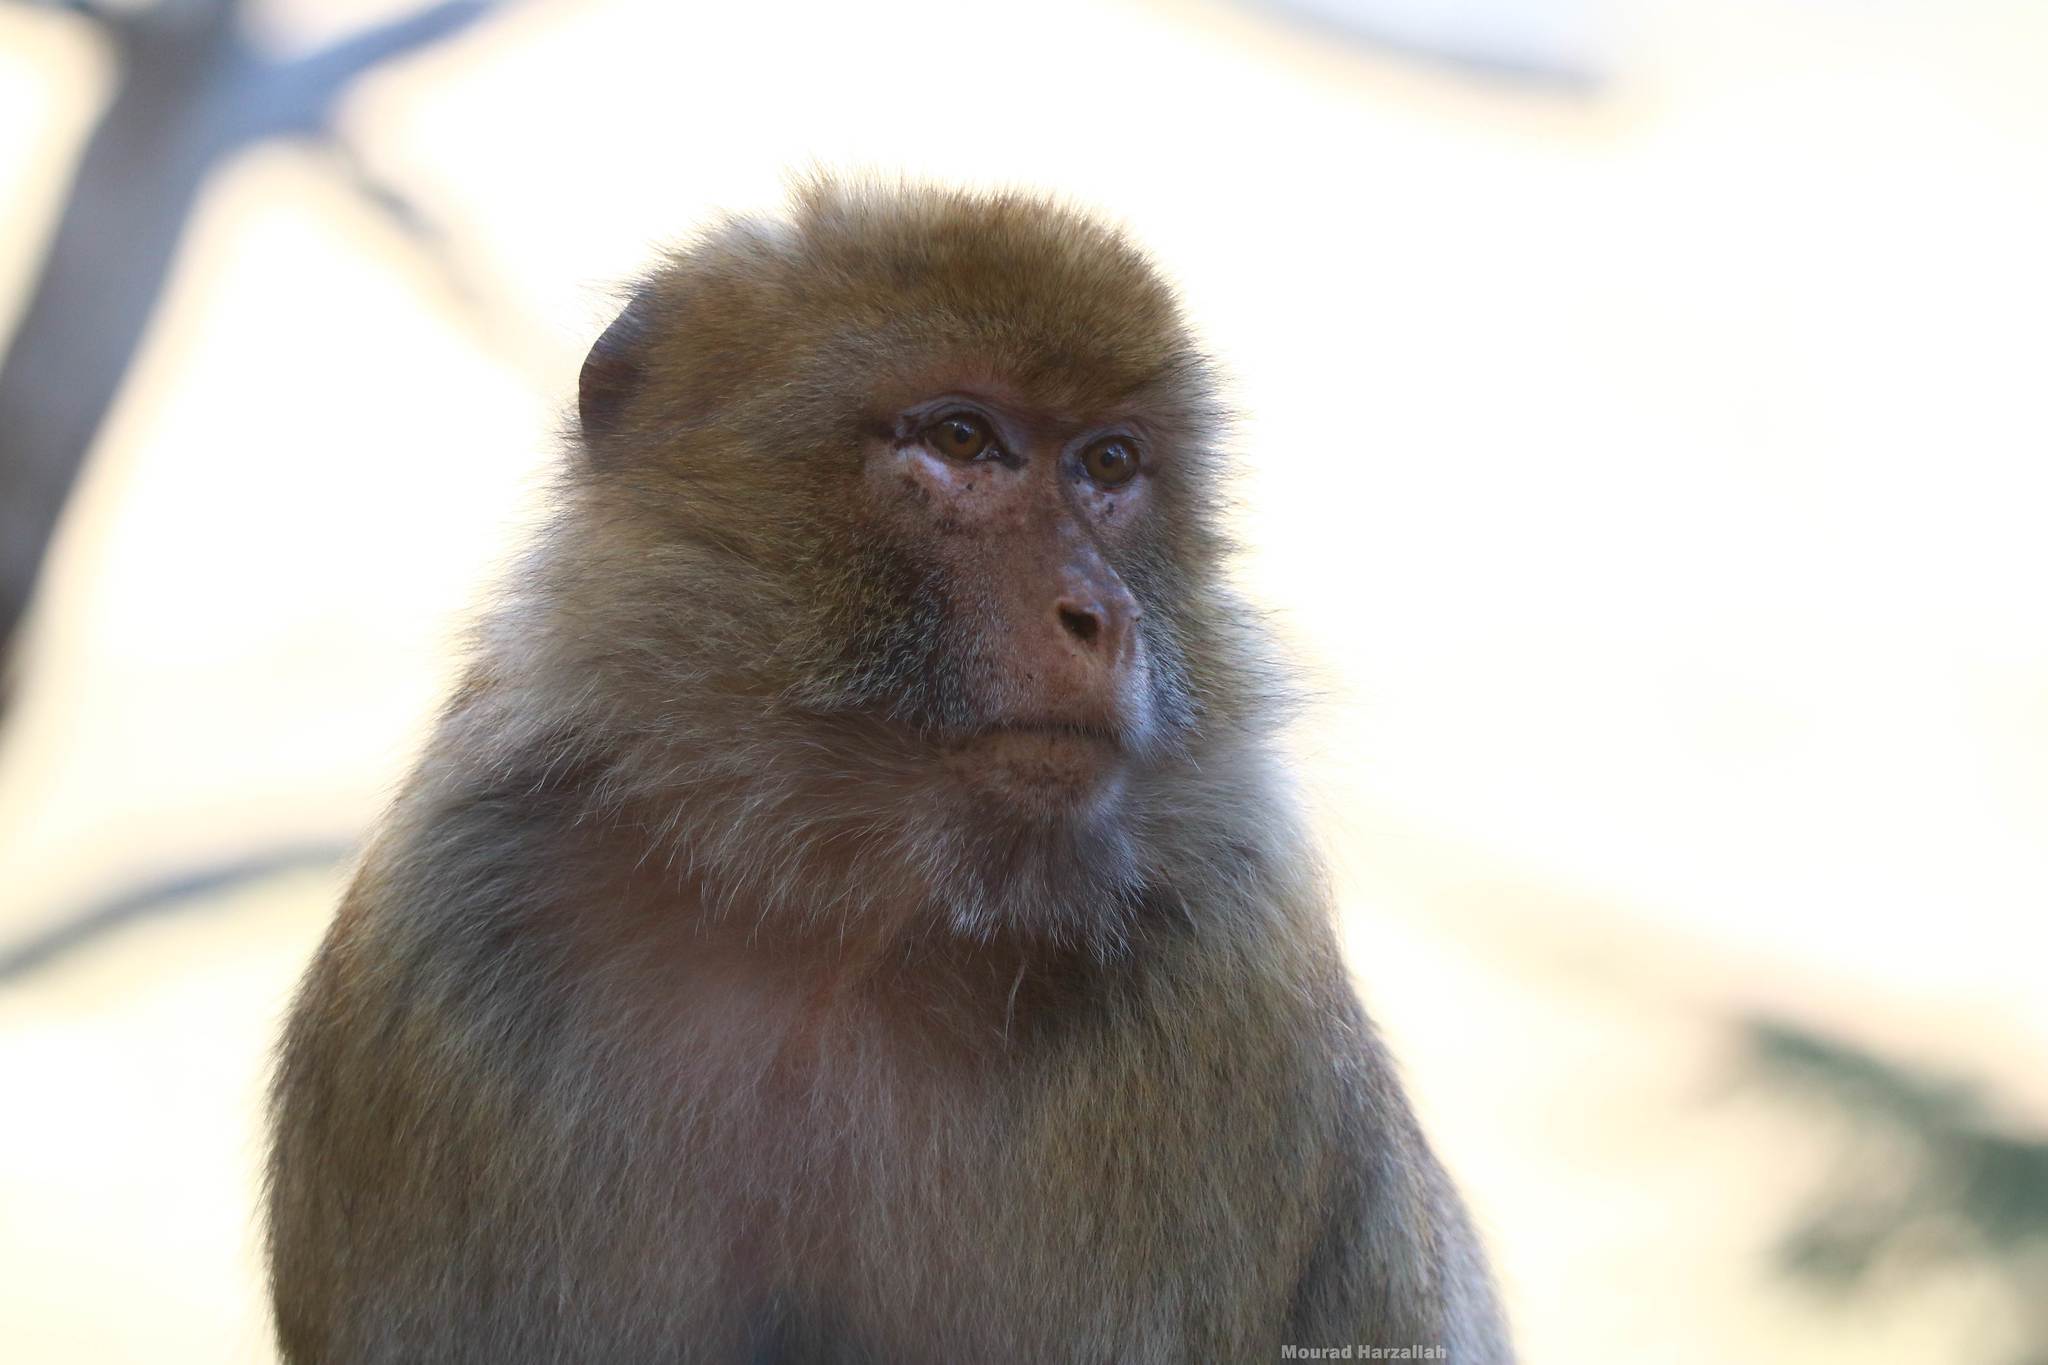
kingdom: Animalia
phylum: Chordata
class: Mammalia
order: Primates
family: Cercopithecidae
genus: Macaca
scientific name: Macaca sylvanus
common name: Barbary macaque
